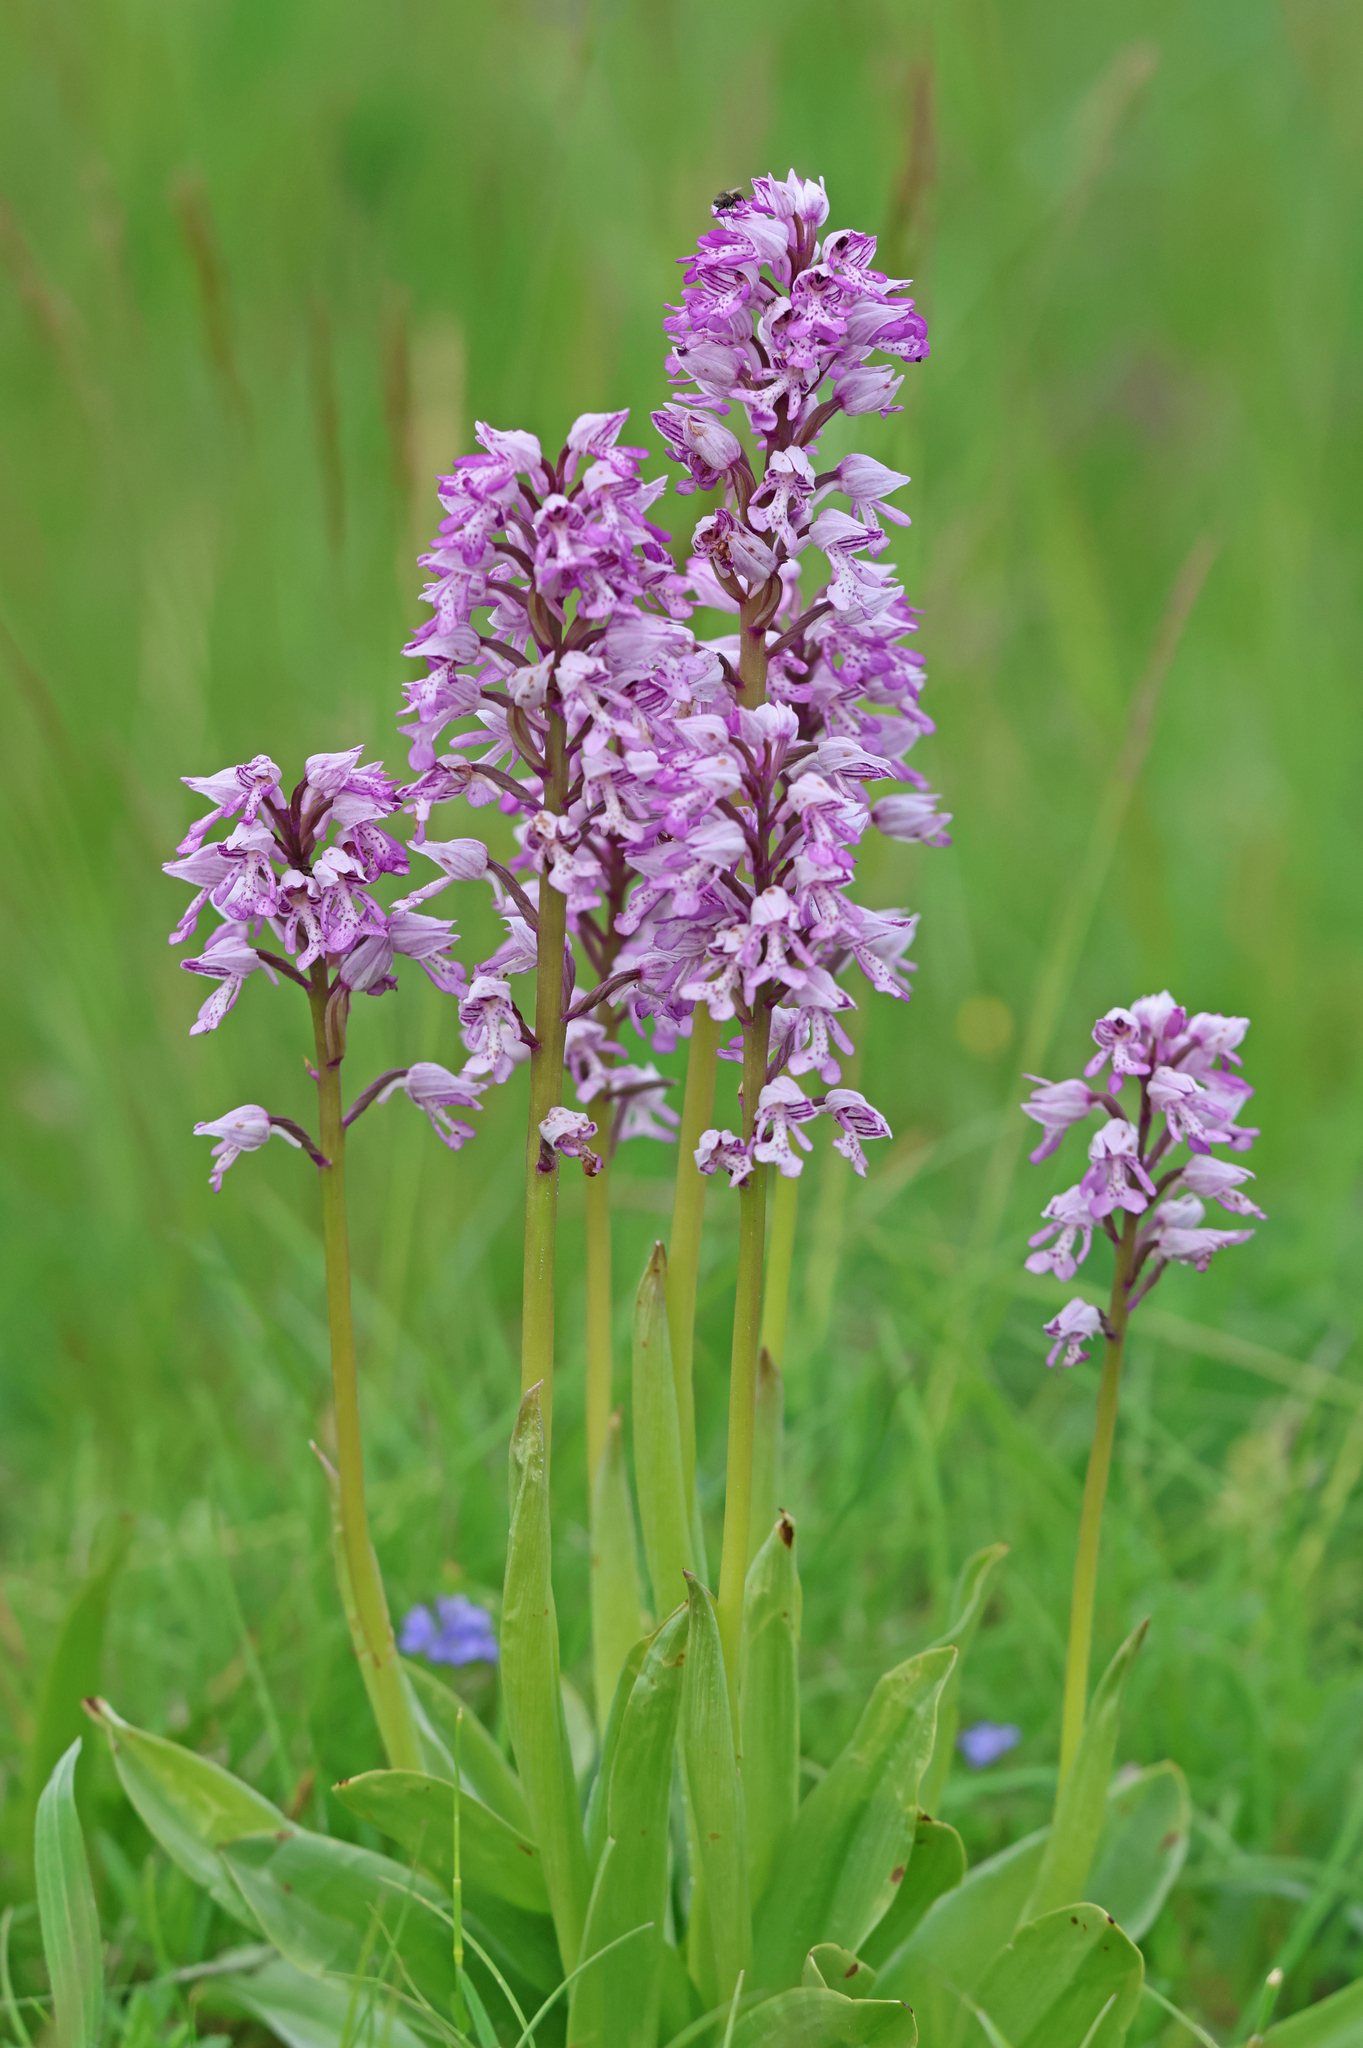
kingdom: Plantae
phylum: Tracheophyta
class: Liliopsida
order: Asparagales
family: Orchidaceae
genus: Orchis
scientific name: Orchis militaris
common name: Military orchid
